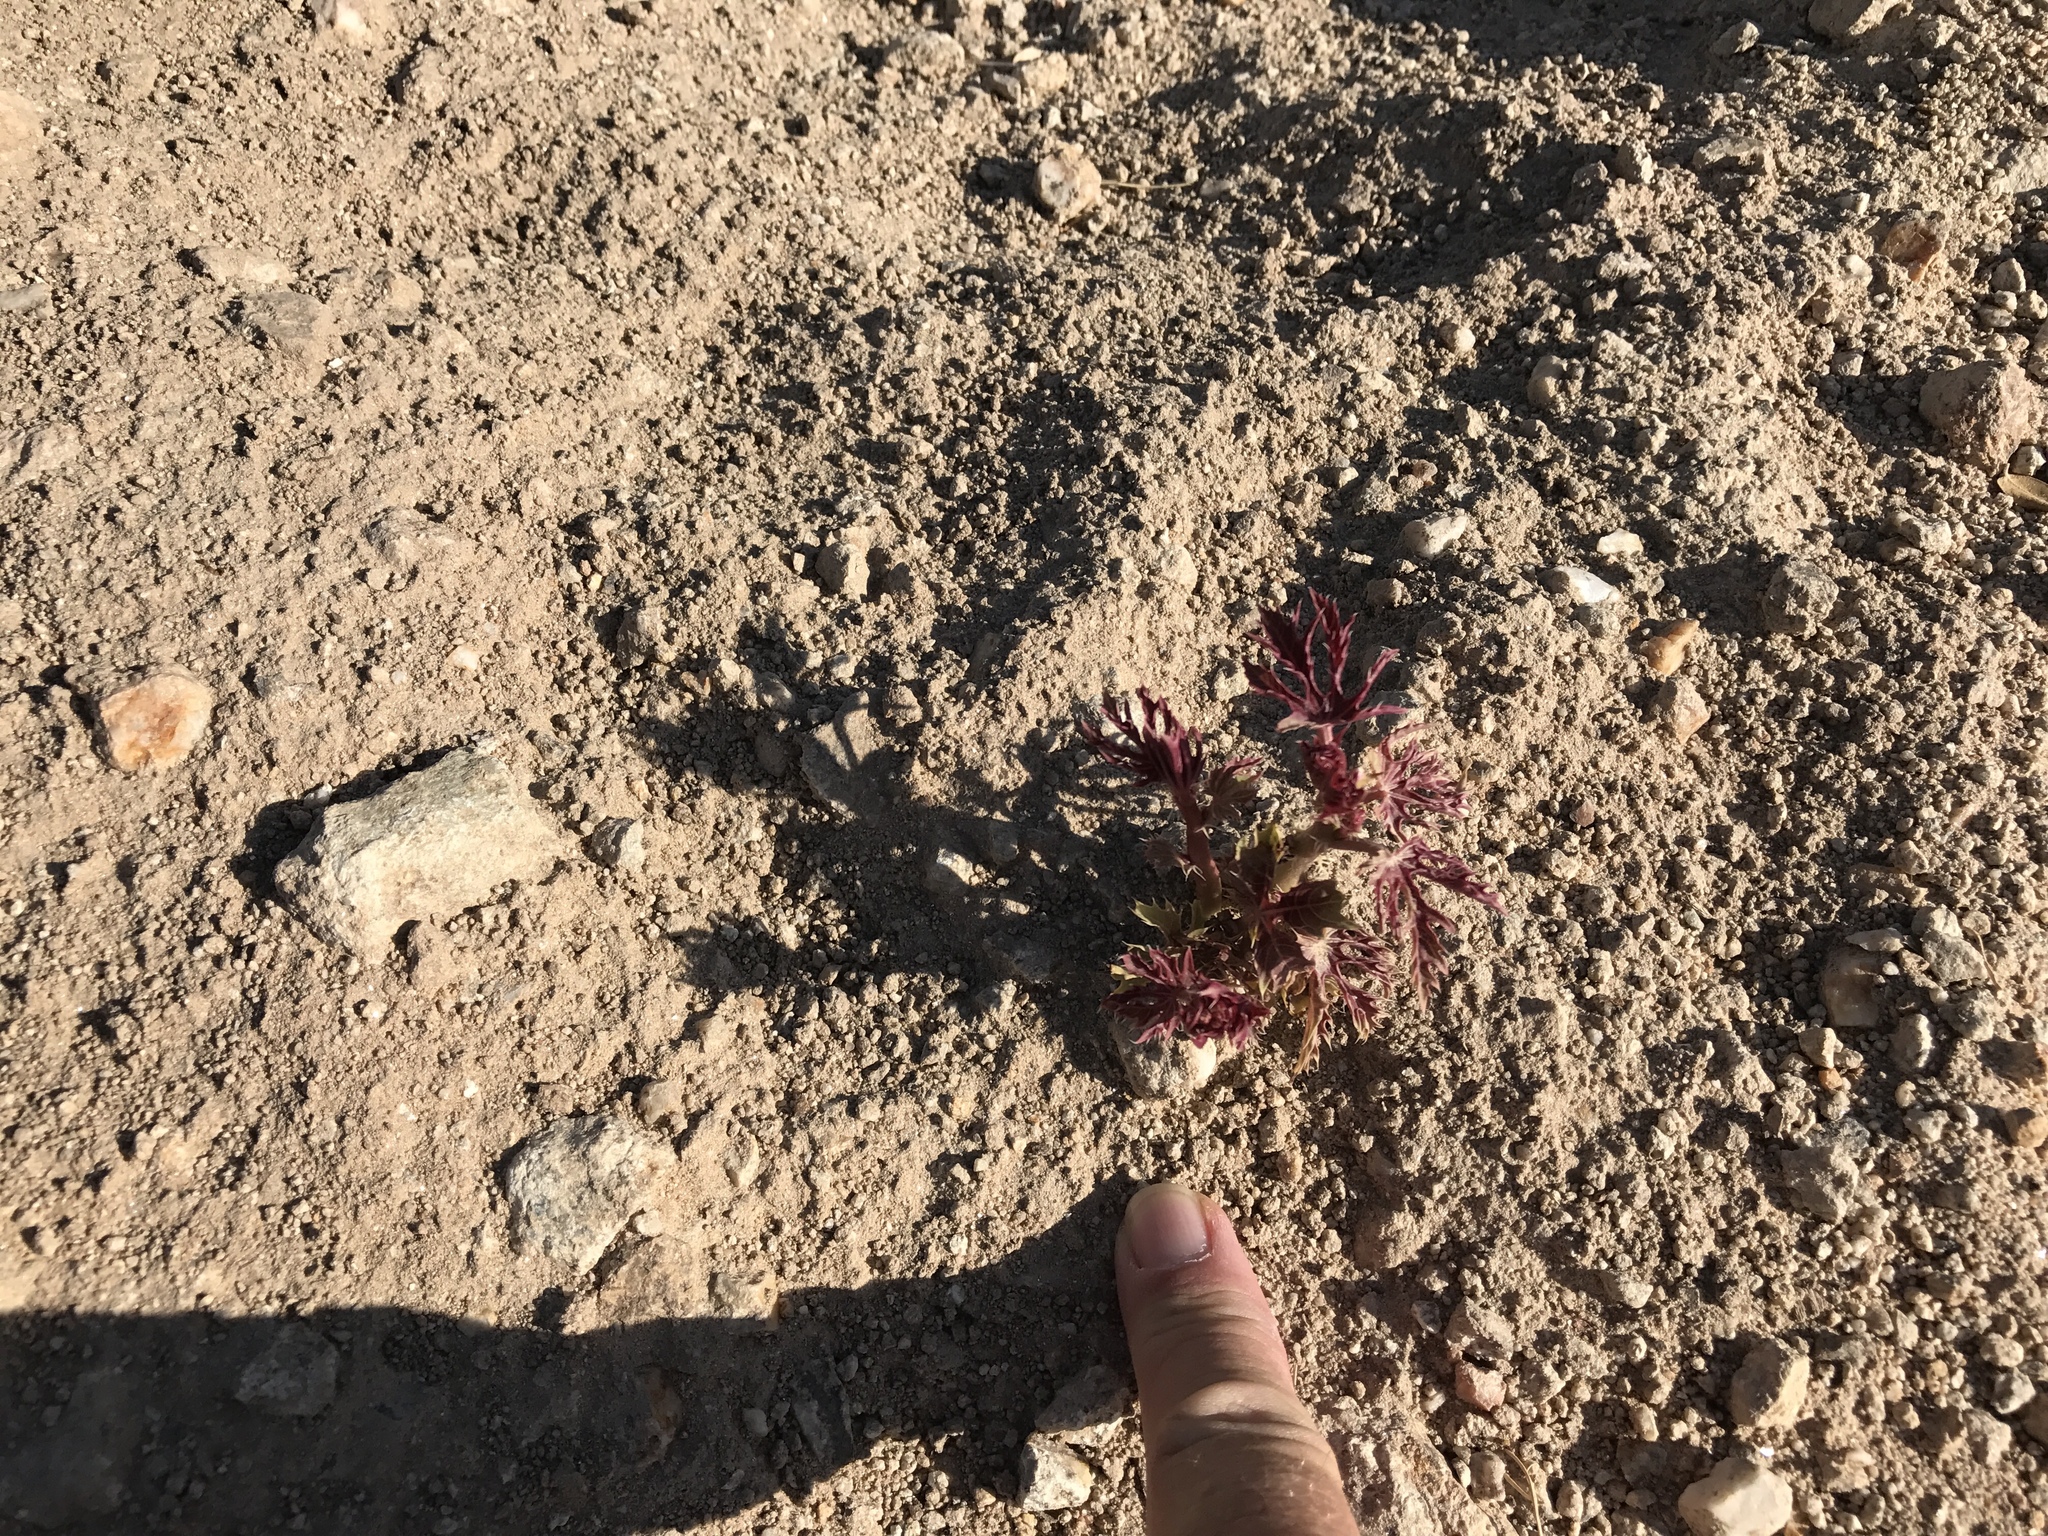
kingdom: Plantae
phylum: Tracheophyta
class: Magnoliopsida
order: Malpighiales
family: Euphorbiaceae
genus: Jatropha
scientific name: Jatropha macrorhiza
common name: Ragged nettlespurge
